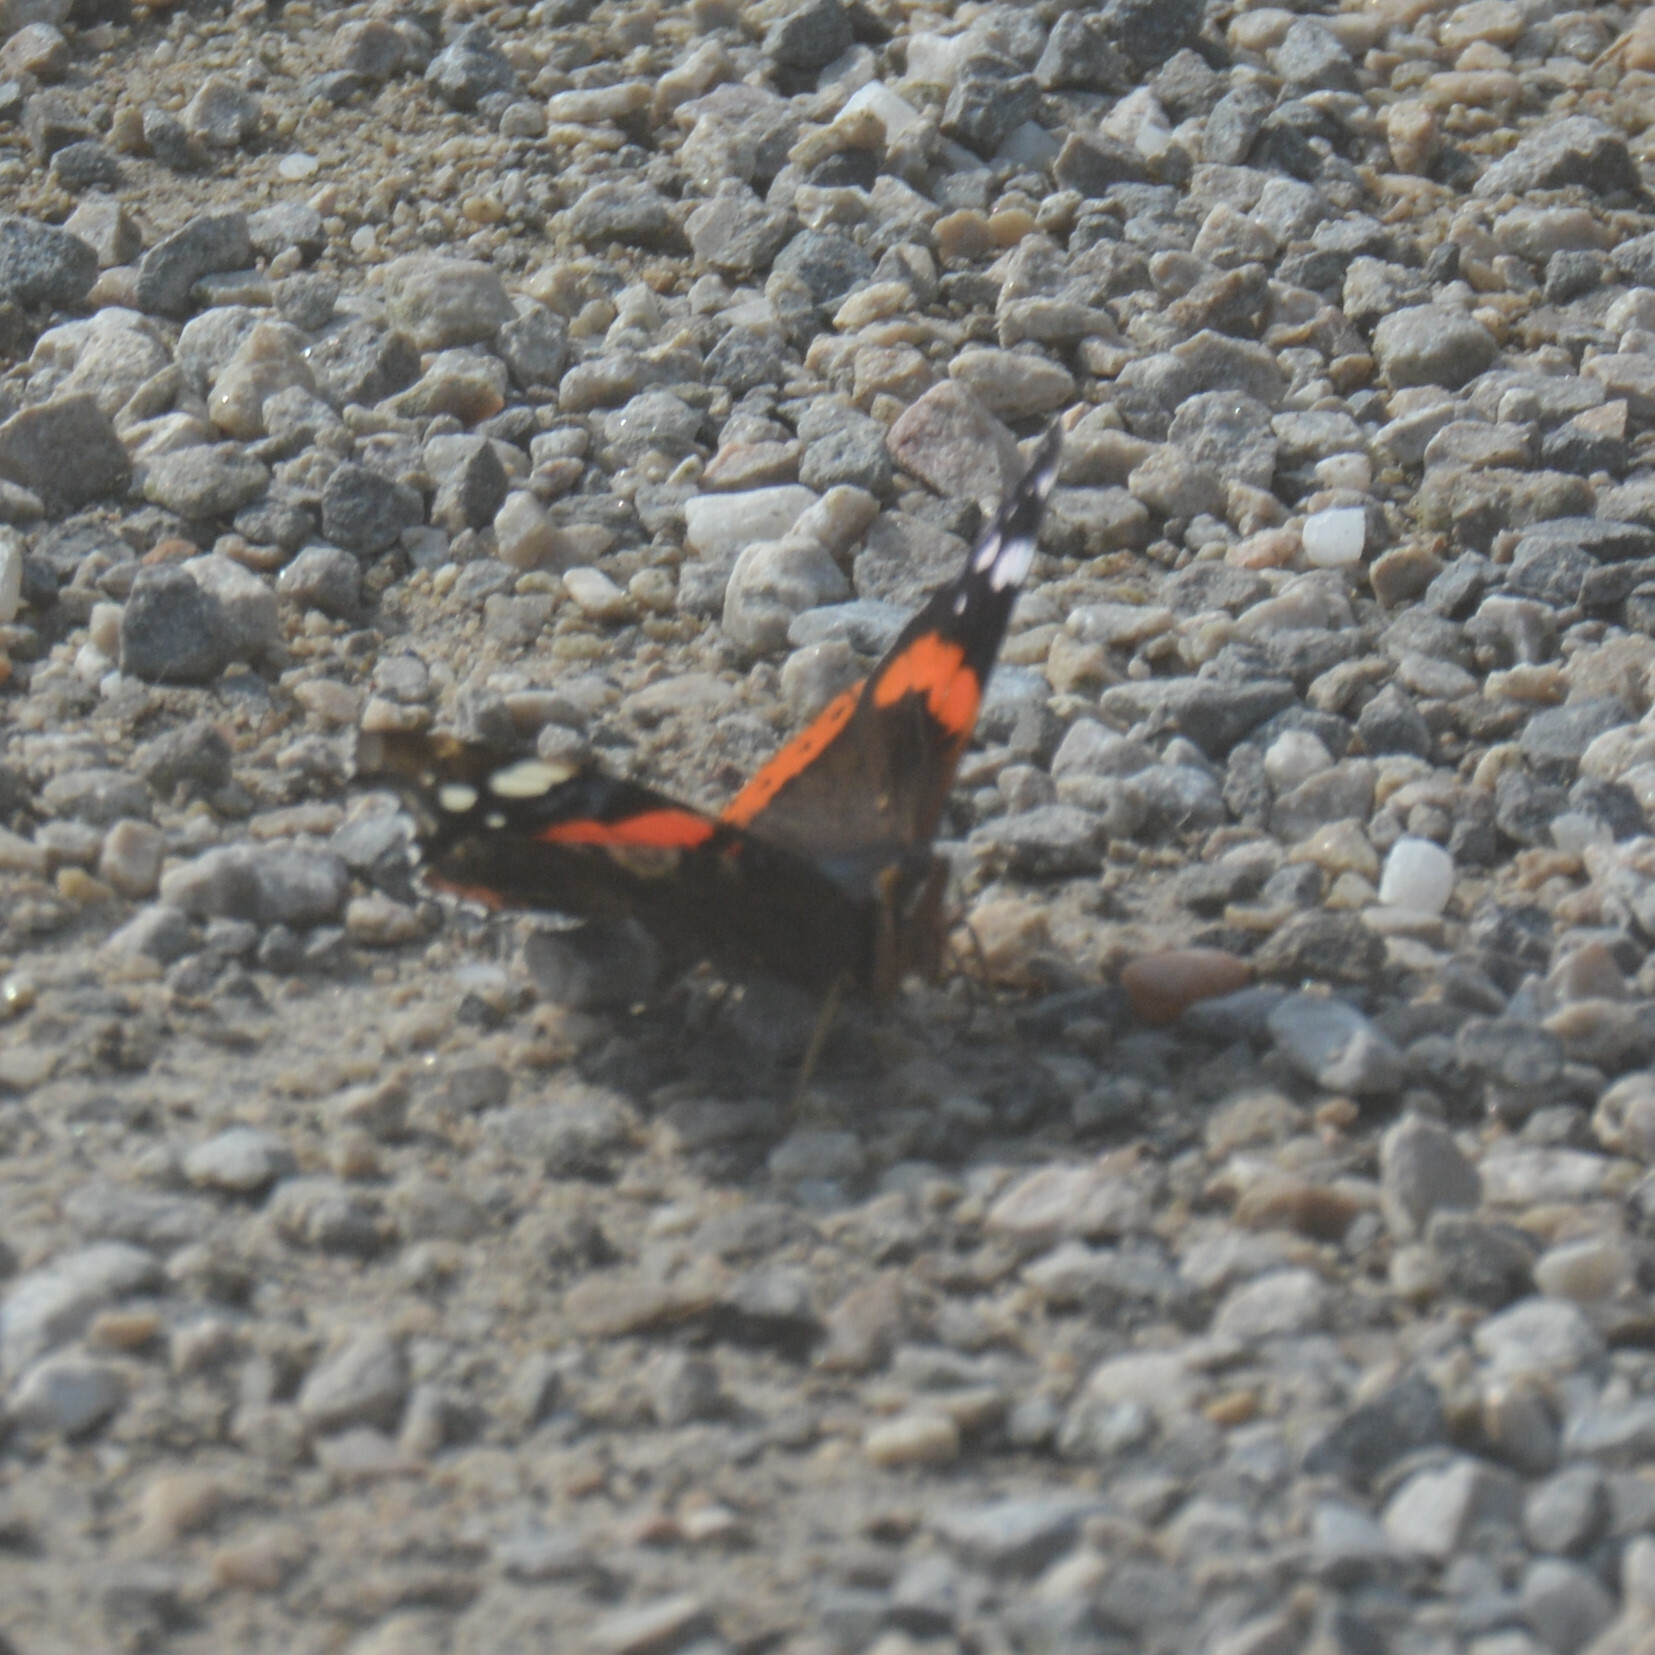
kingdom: Animalia
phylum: Arthropoda
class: Insecta
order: Lepidoptera
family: Nymphalidae
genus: Vanessa
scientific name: Vanessa atalanta
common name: Red admiral
